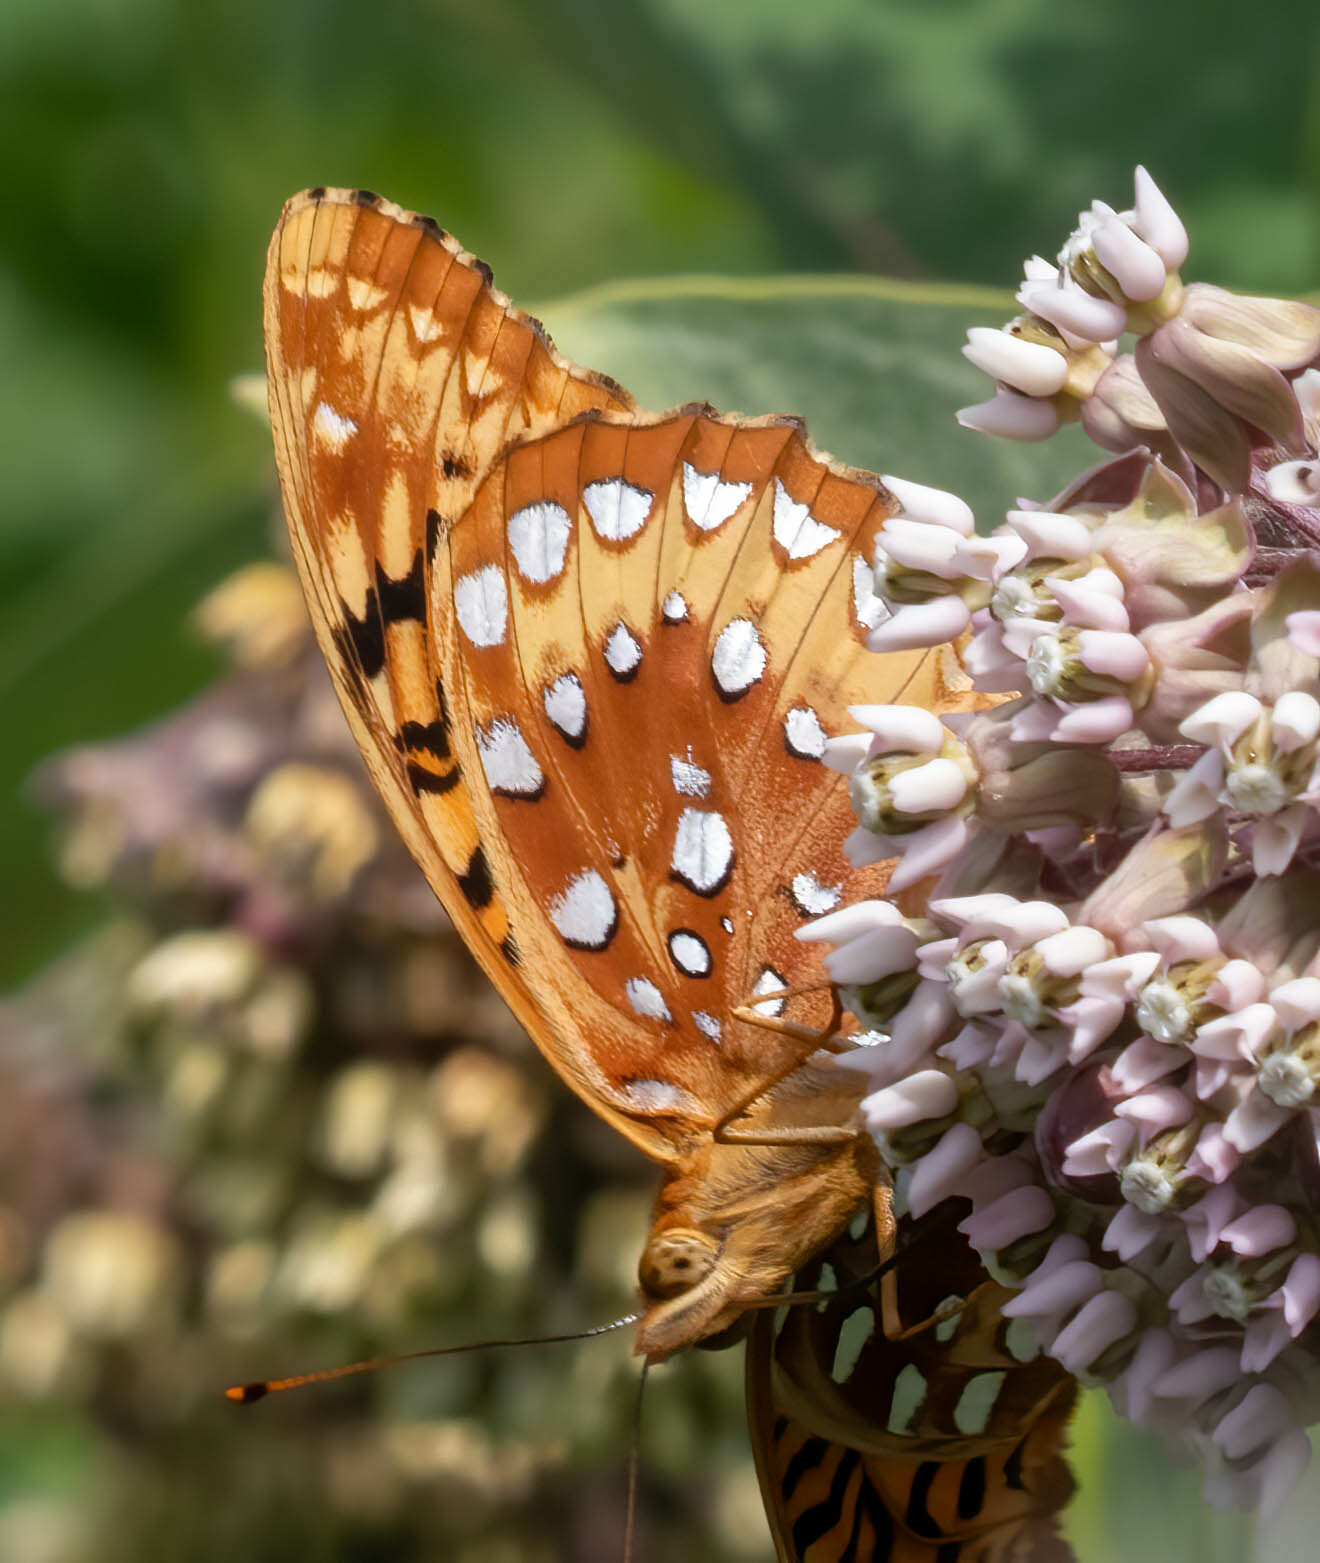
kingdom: Animalia
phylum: Arthropoda
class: Insecta
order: Lepidoptera
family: Nymphalidae
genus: Speyeria
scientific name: Speyeria cybele
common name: Great spangled fritillary
